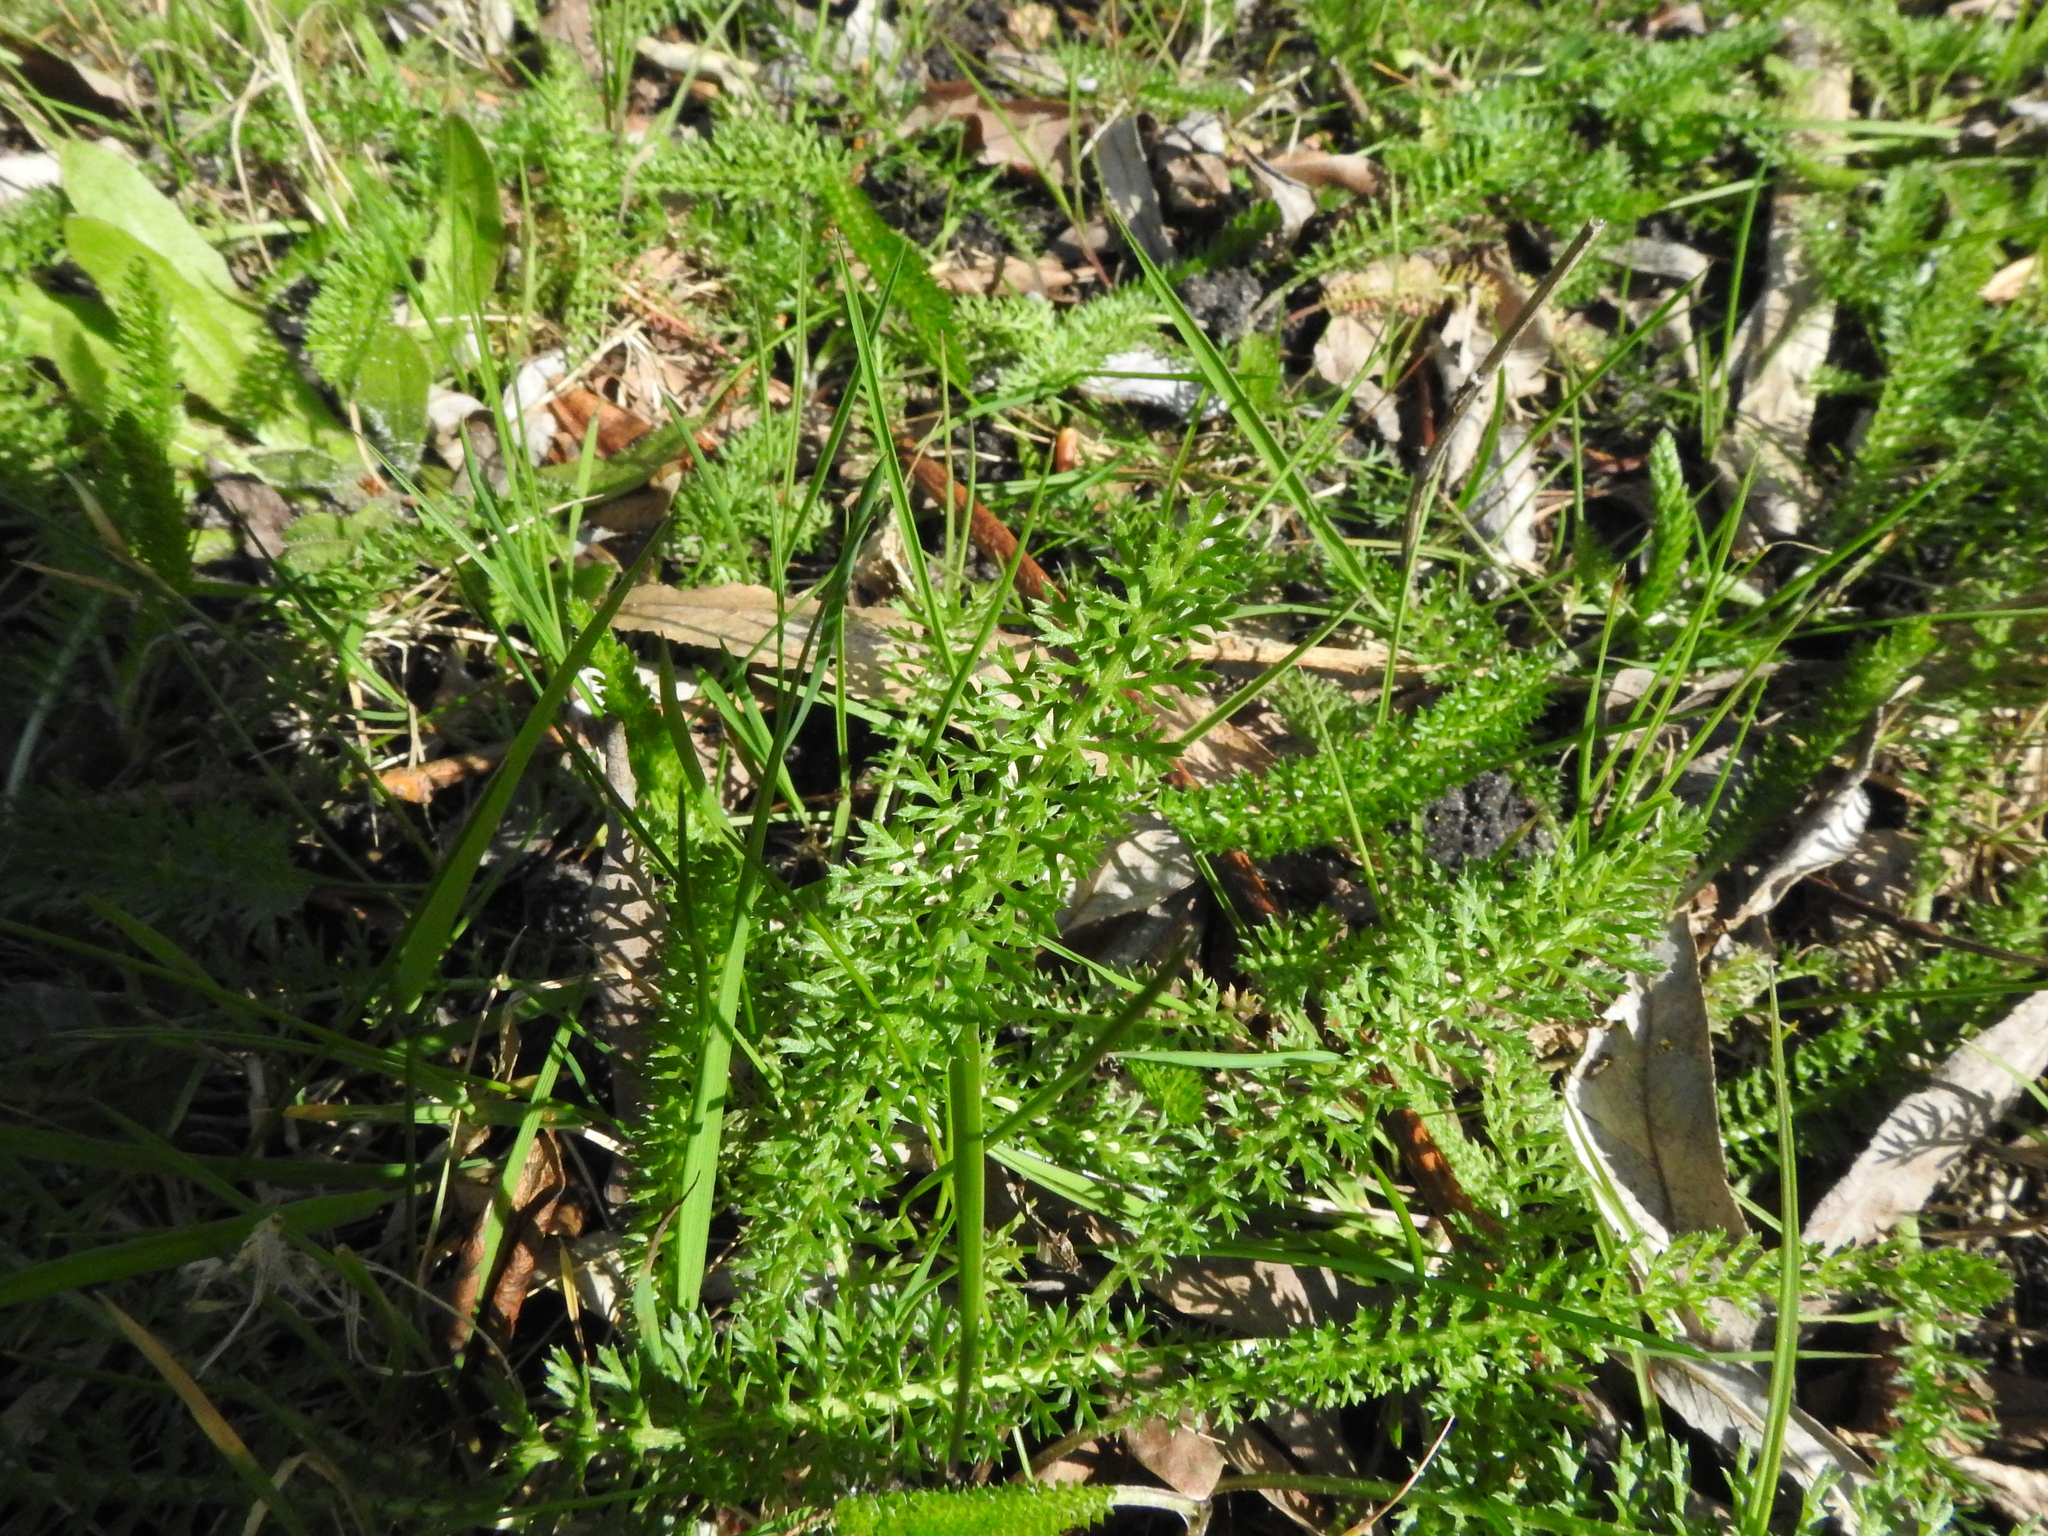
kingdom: Plantae
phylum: Tracheophyta
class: Magnoliopsida
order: Asterales
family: Asteraceae
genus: Achillea
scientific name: Achillea millefolium
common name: Yarrow
